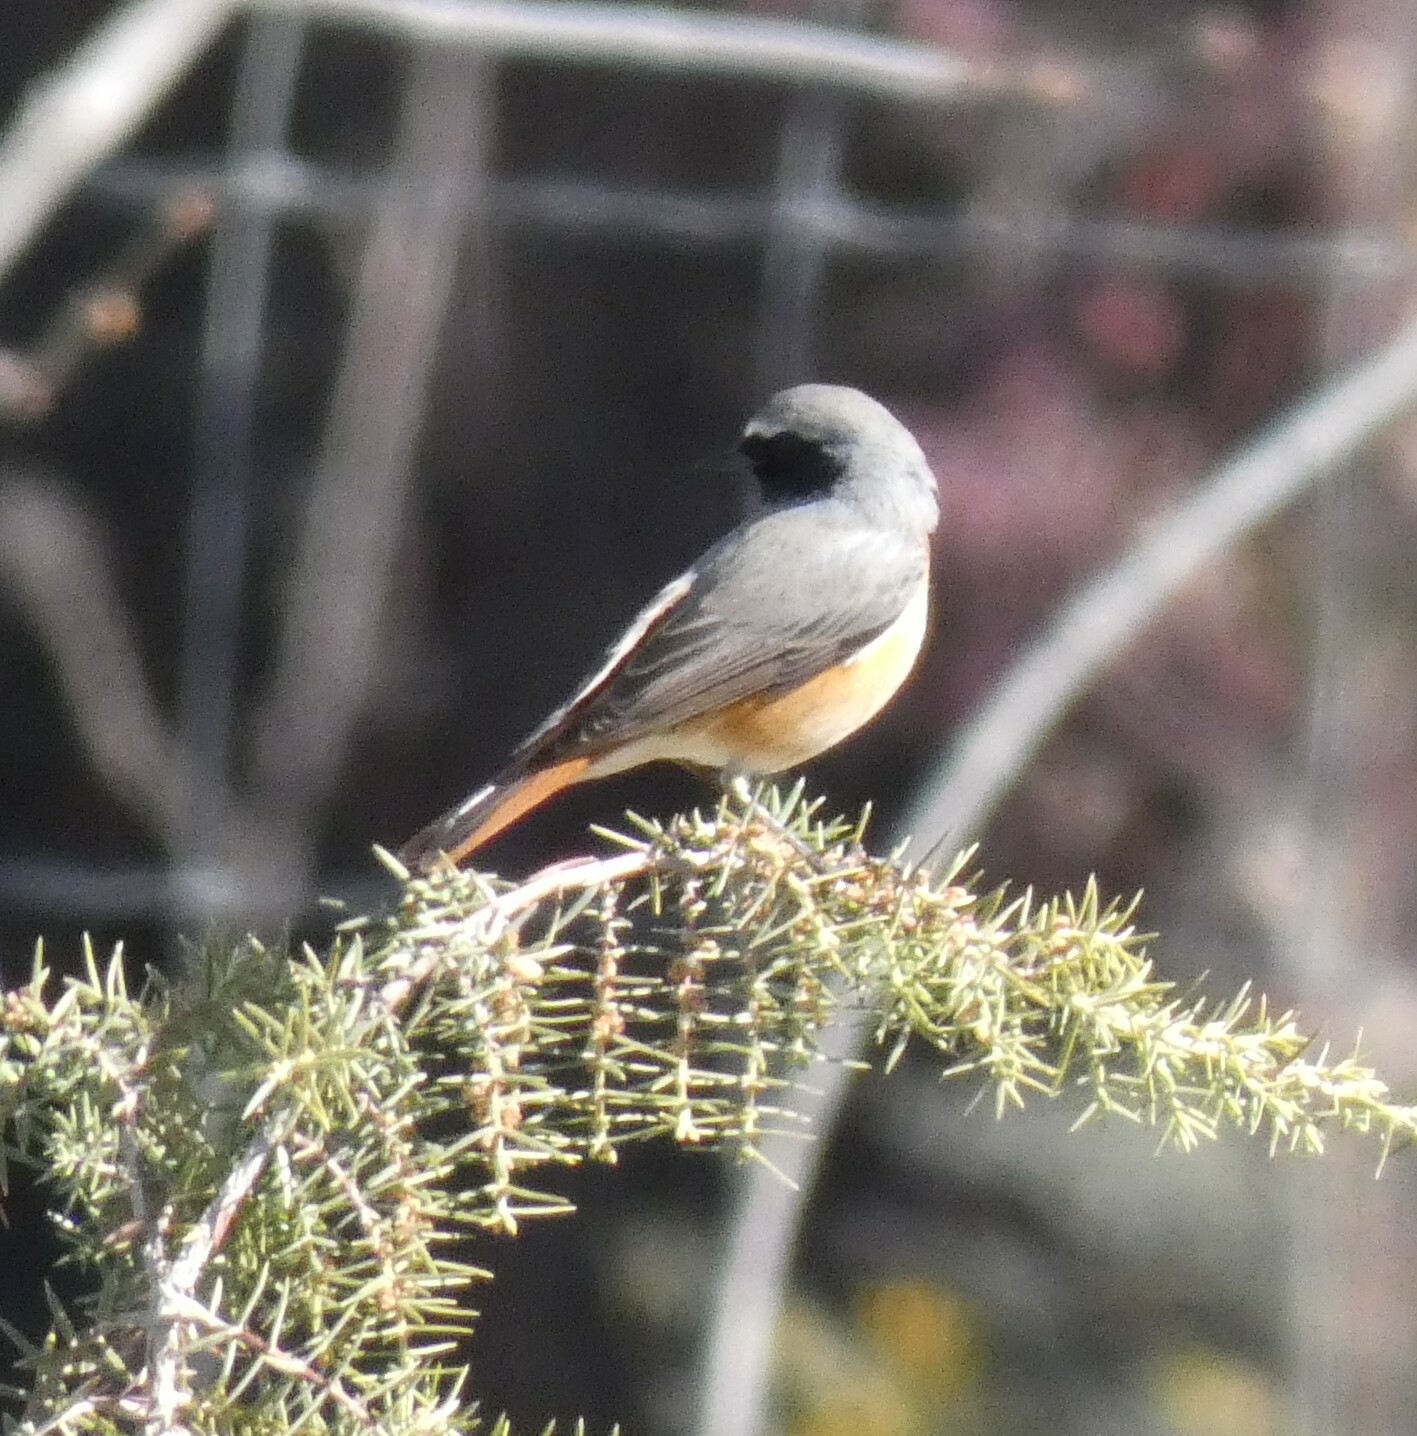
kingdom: Animalia
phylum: Chordata
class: Aves
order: Passeriformes
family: Muscicapidae
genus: Phoenicurus
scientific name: Phoenicurus phoenicurus
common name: Common redstart
